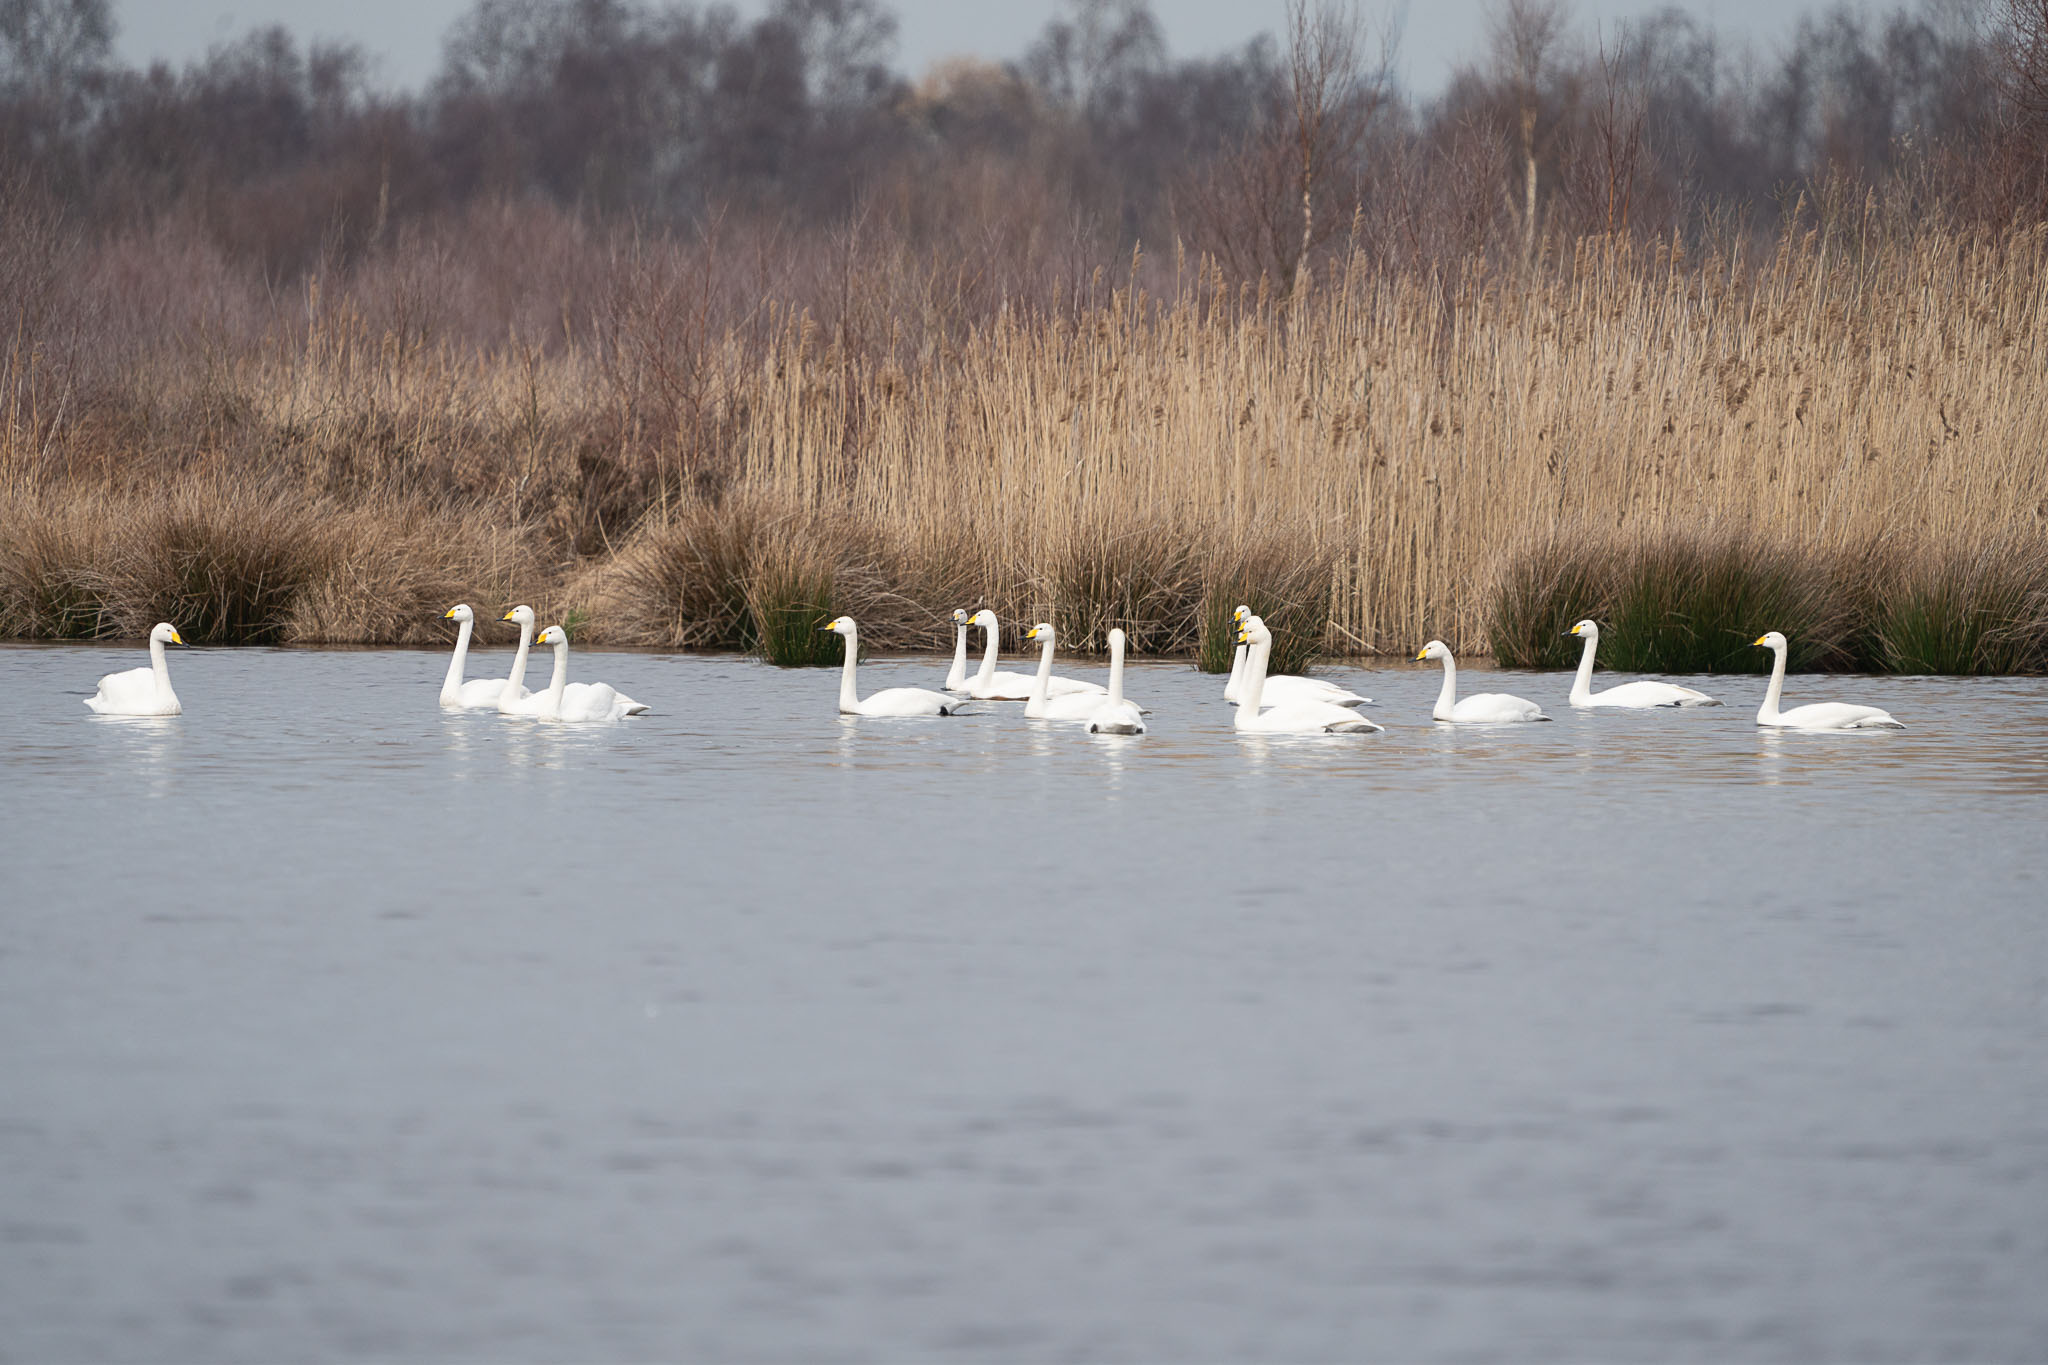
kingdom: Animalia
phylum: Chordata
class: Aves
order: Anseriformes
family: Anatidae
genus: Cygnus
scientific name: Cygnus cygnus
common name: Whooper swan
